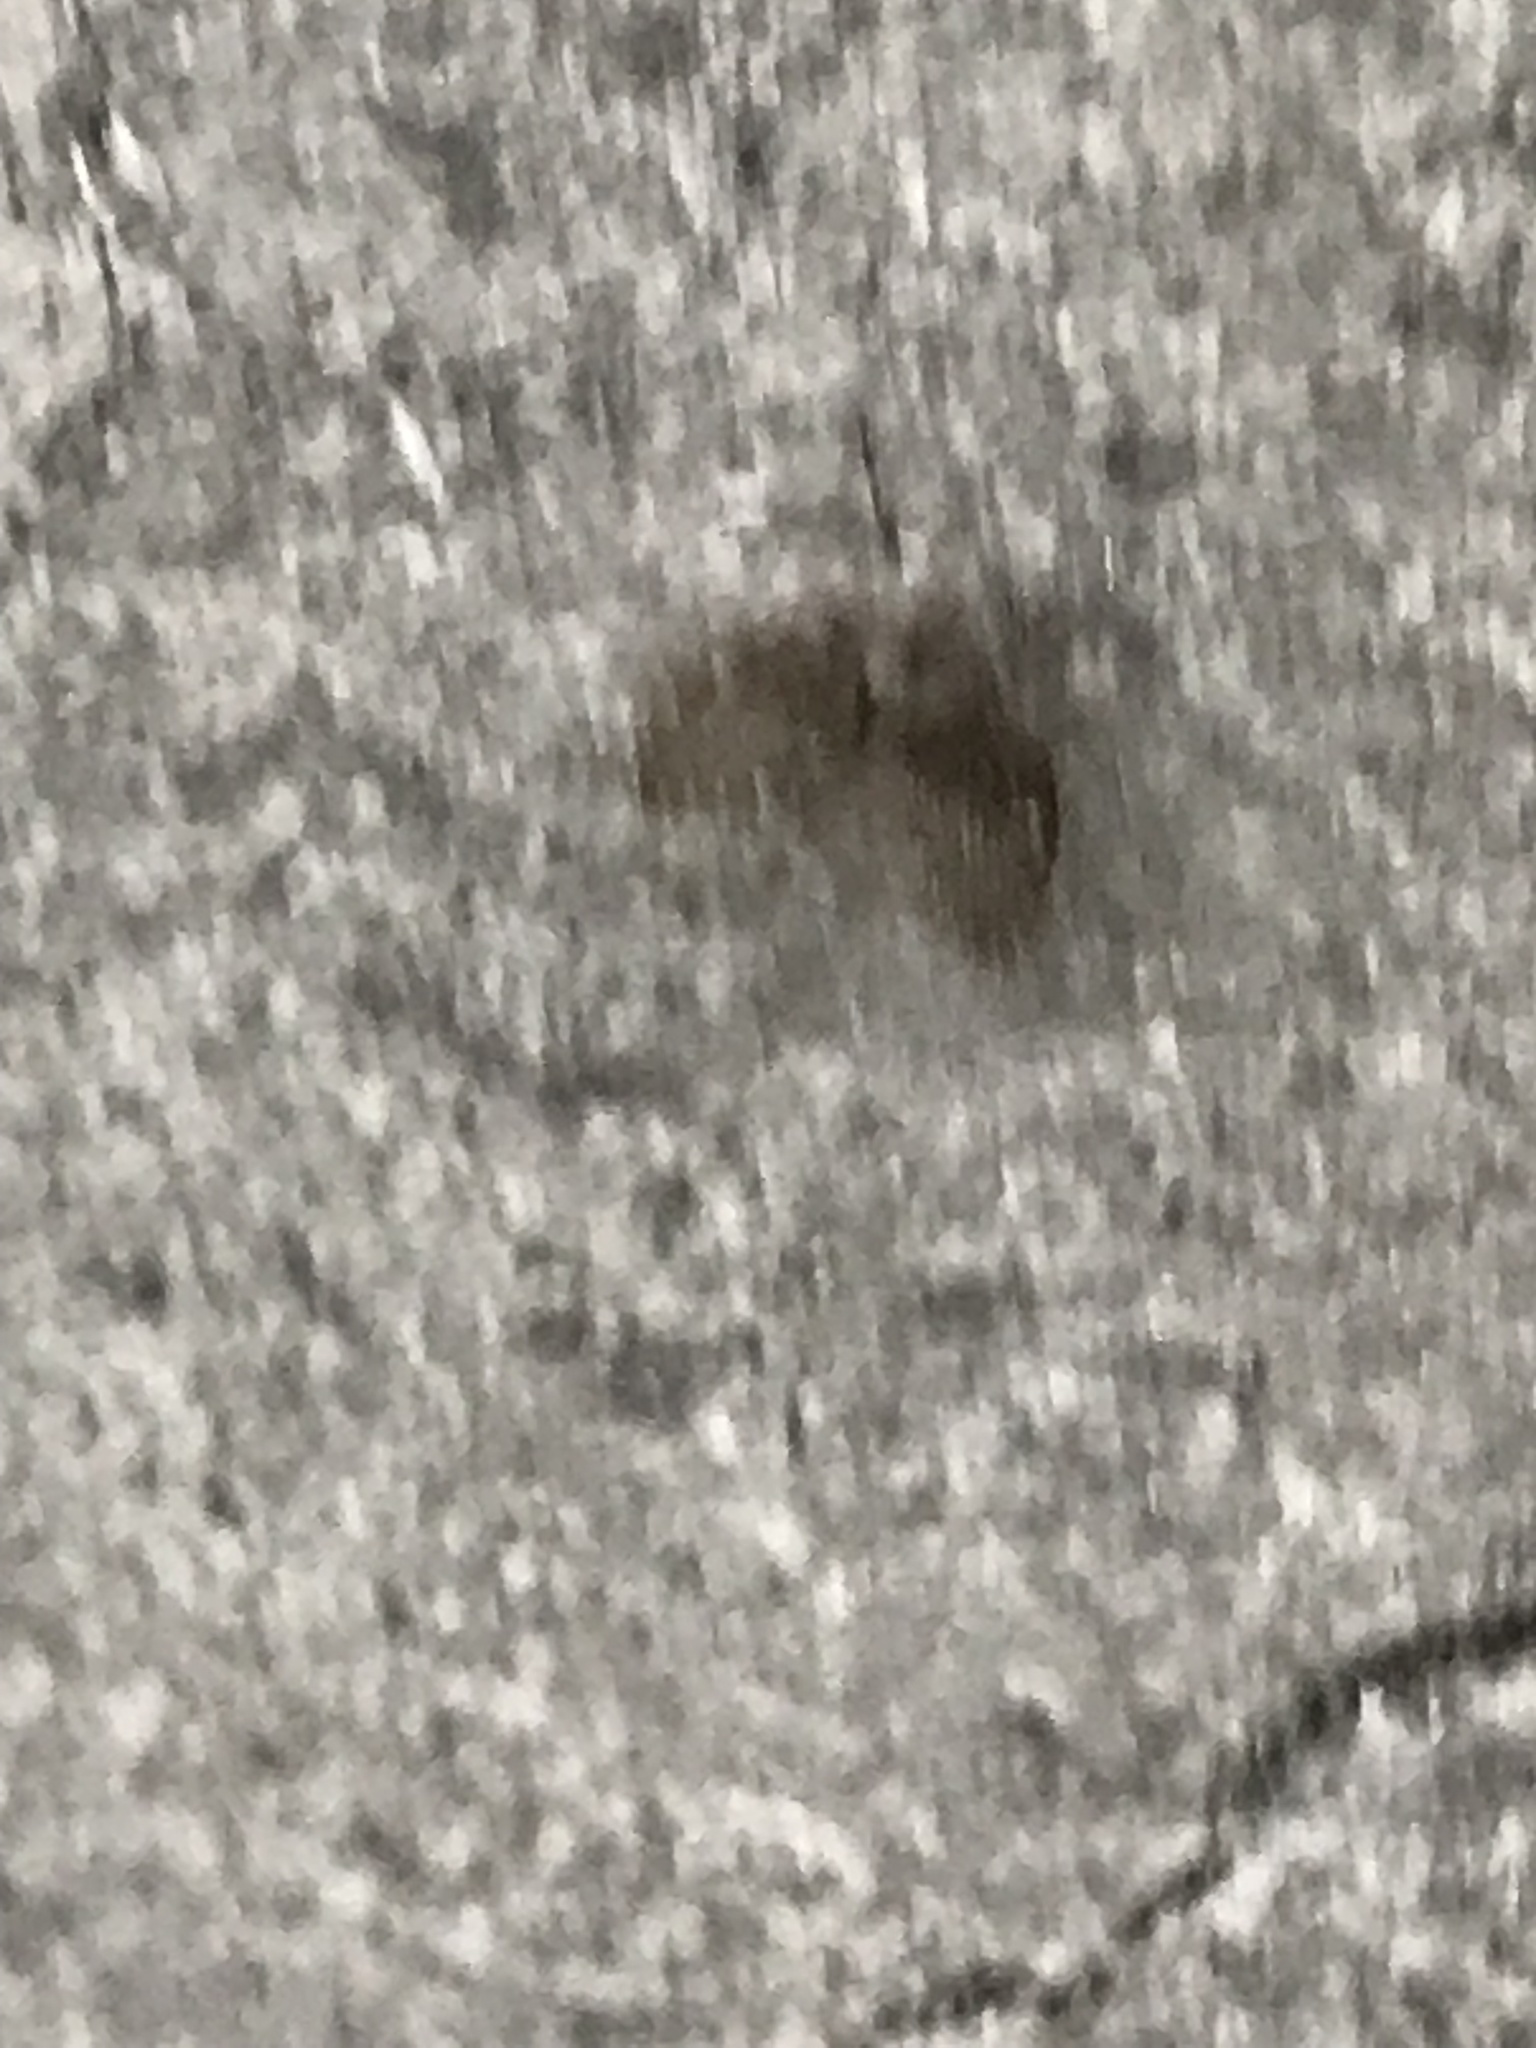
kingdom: Animalia
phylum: Arthropoda
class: Insecta
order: Diptera
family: Psychodidae
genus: Clogmia
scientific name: Clogmia albipunctatus
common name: White-spotted moth fly
